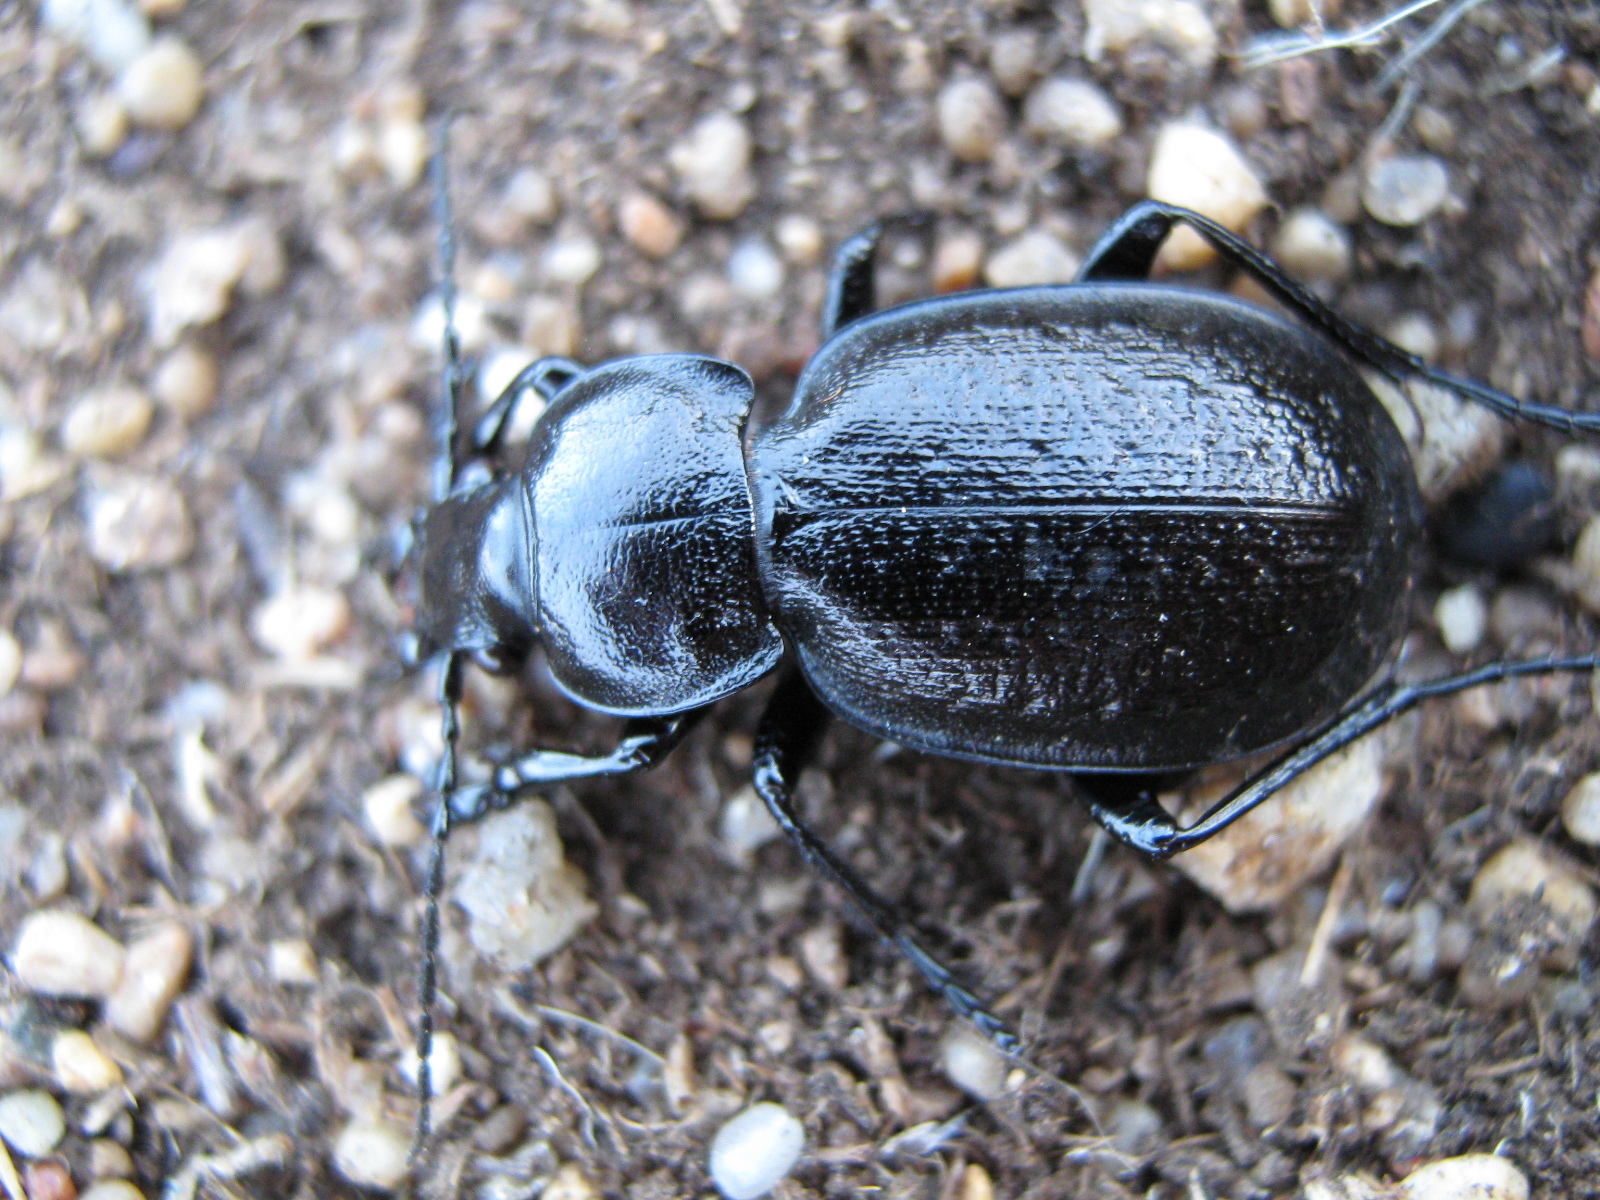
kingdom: Animalia
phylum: Arthropoda
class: Insecta
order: Coleoptera
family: Carabidae
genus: Carabus
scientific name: Carabus kruberi
